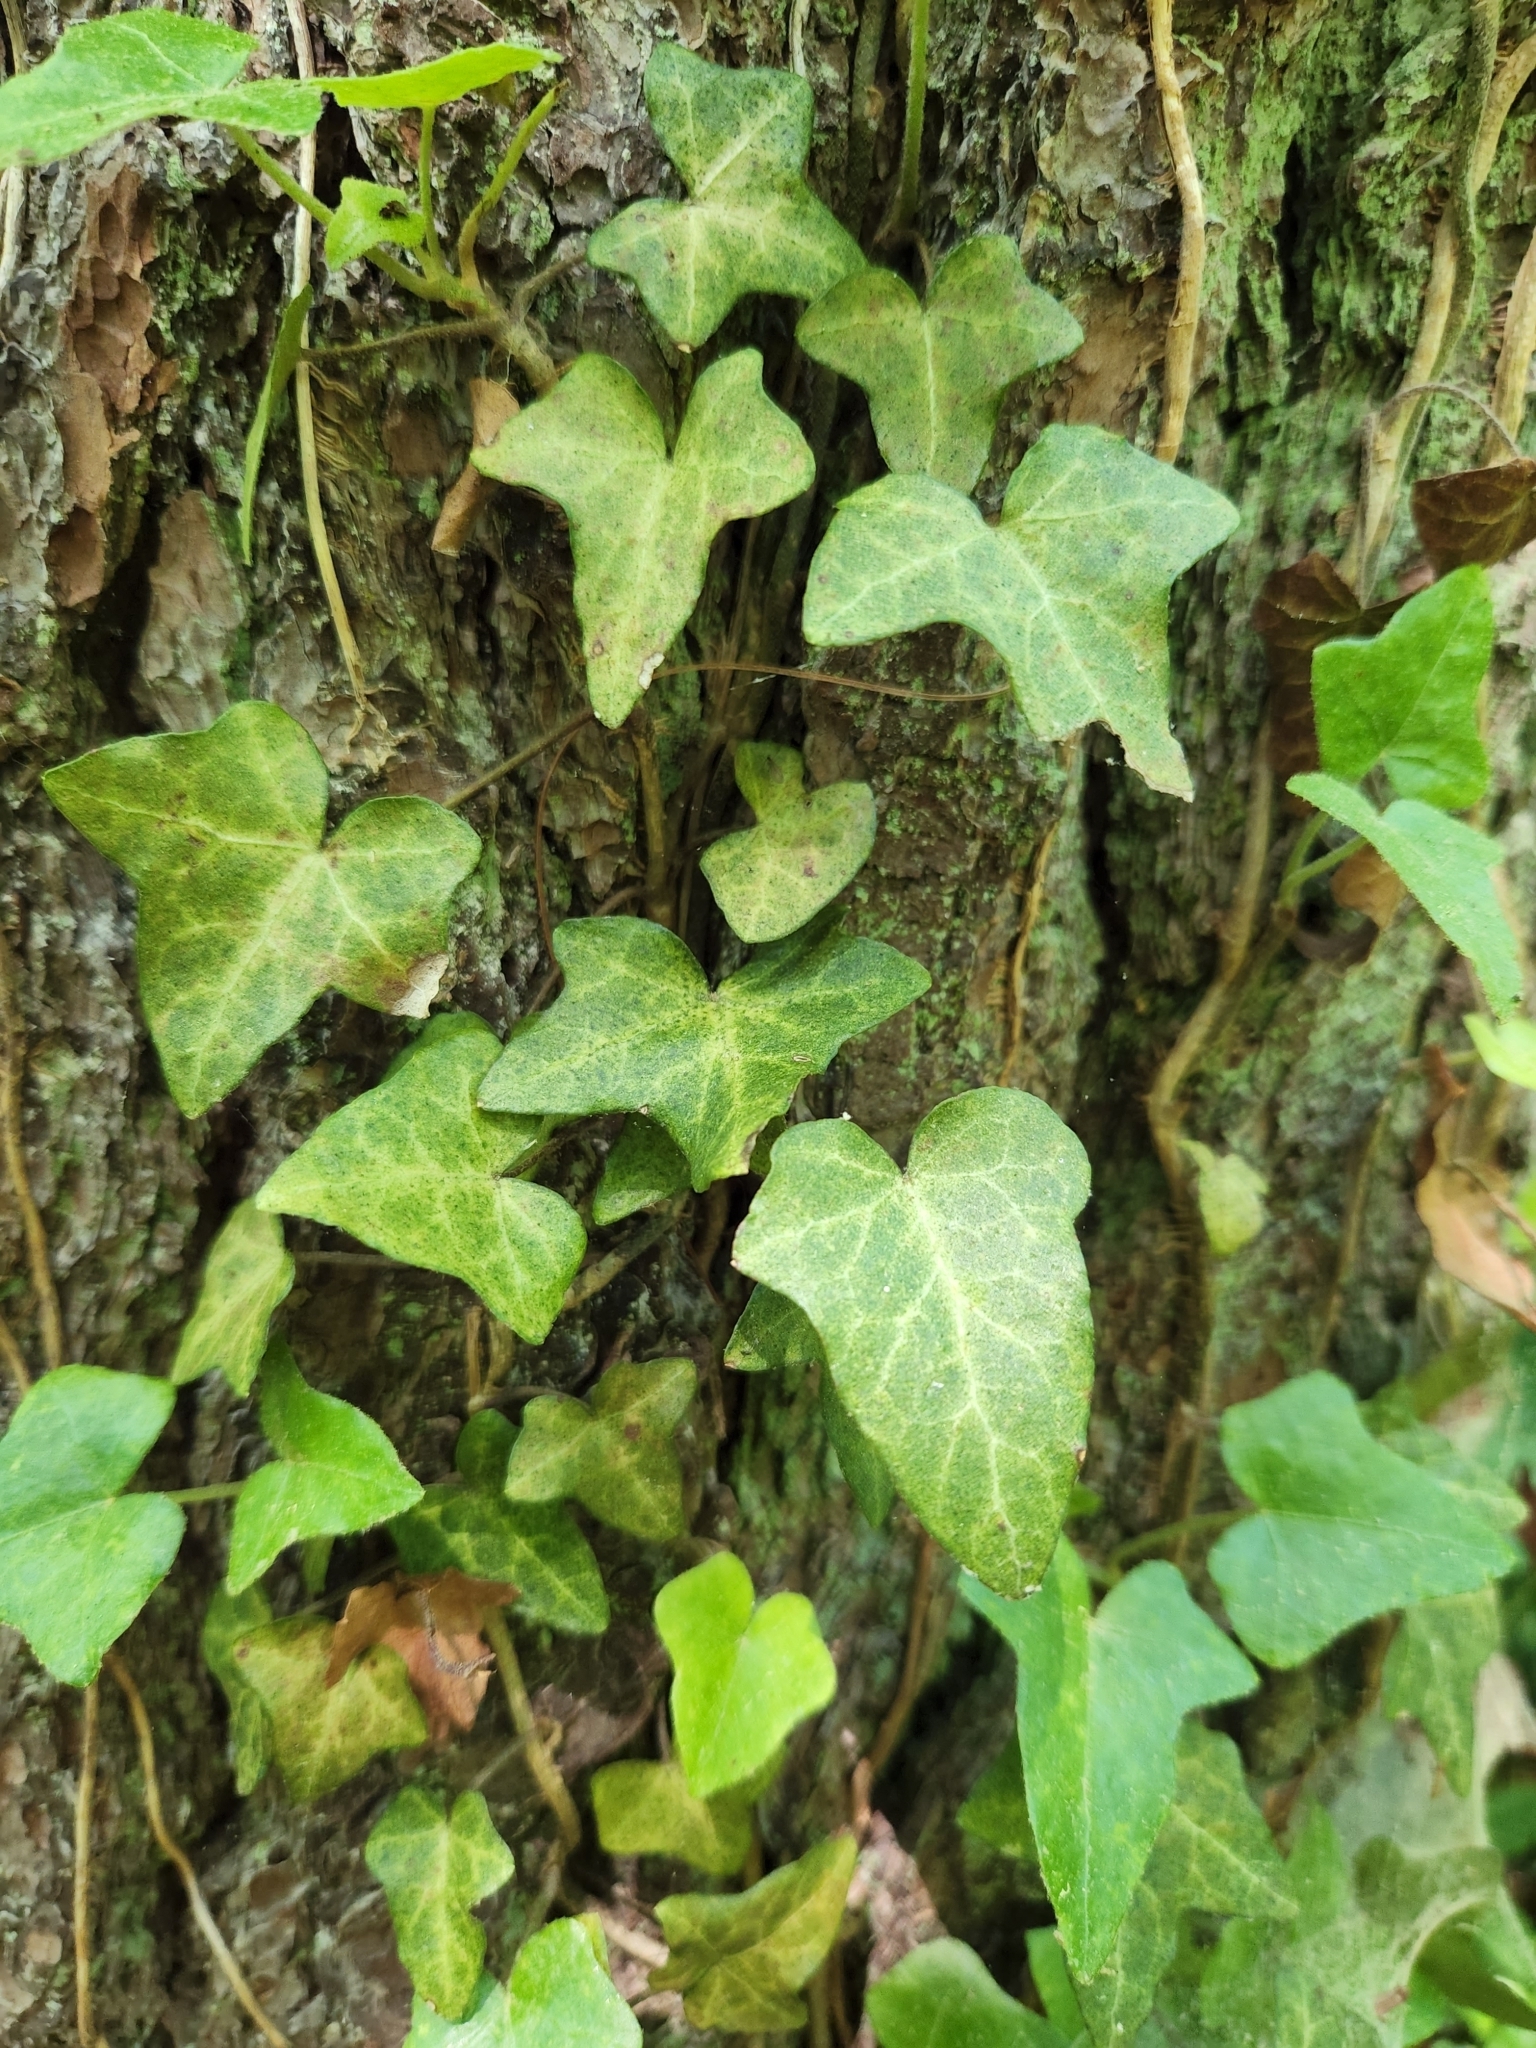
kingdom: Plantae
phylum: Tracheophyta
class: Magnoliopsida
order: Apiales
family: Araliaceae
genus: Hedera
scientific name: Hedera helix
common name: Ivy
